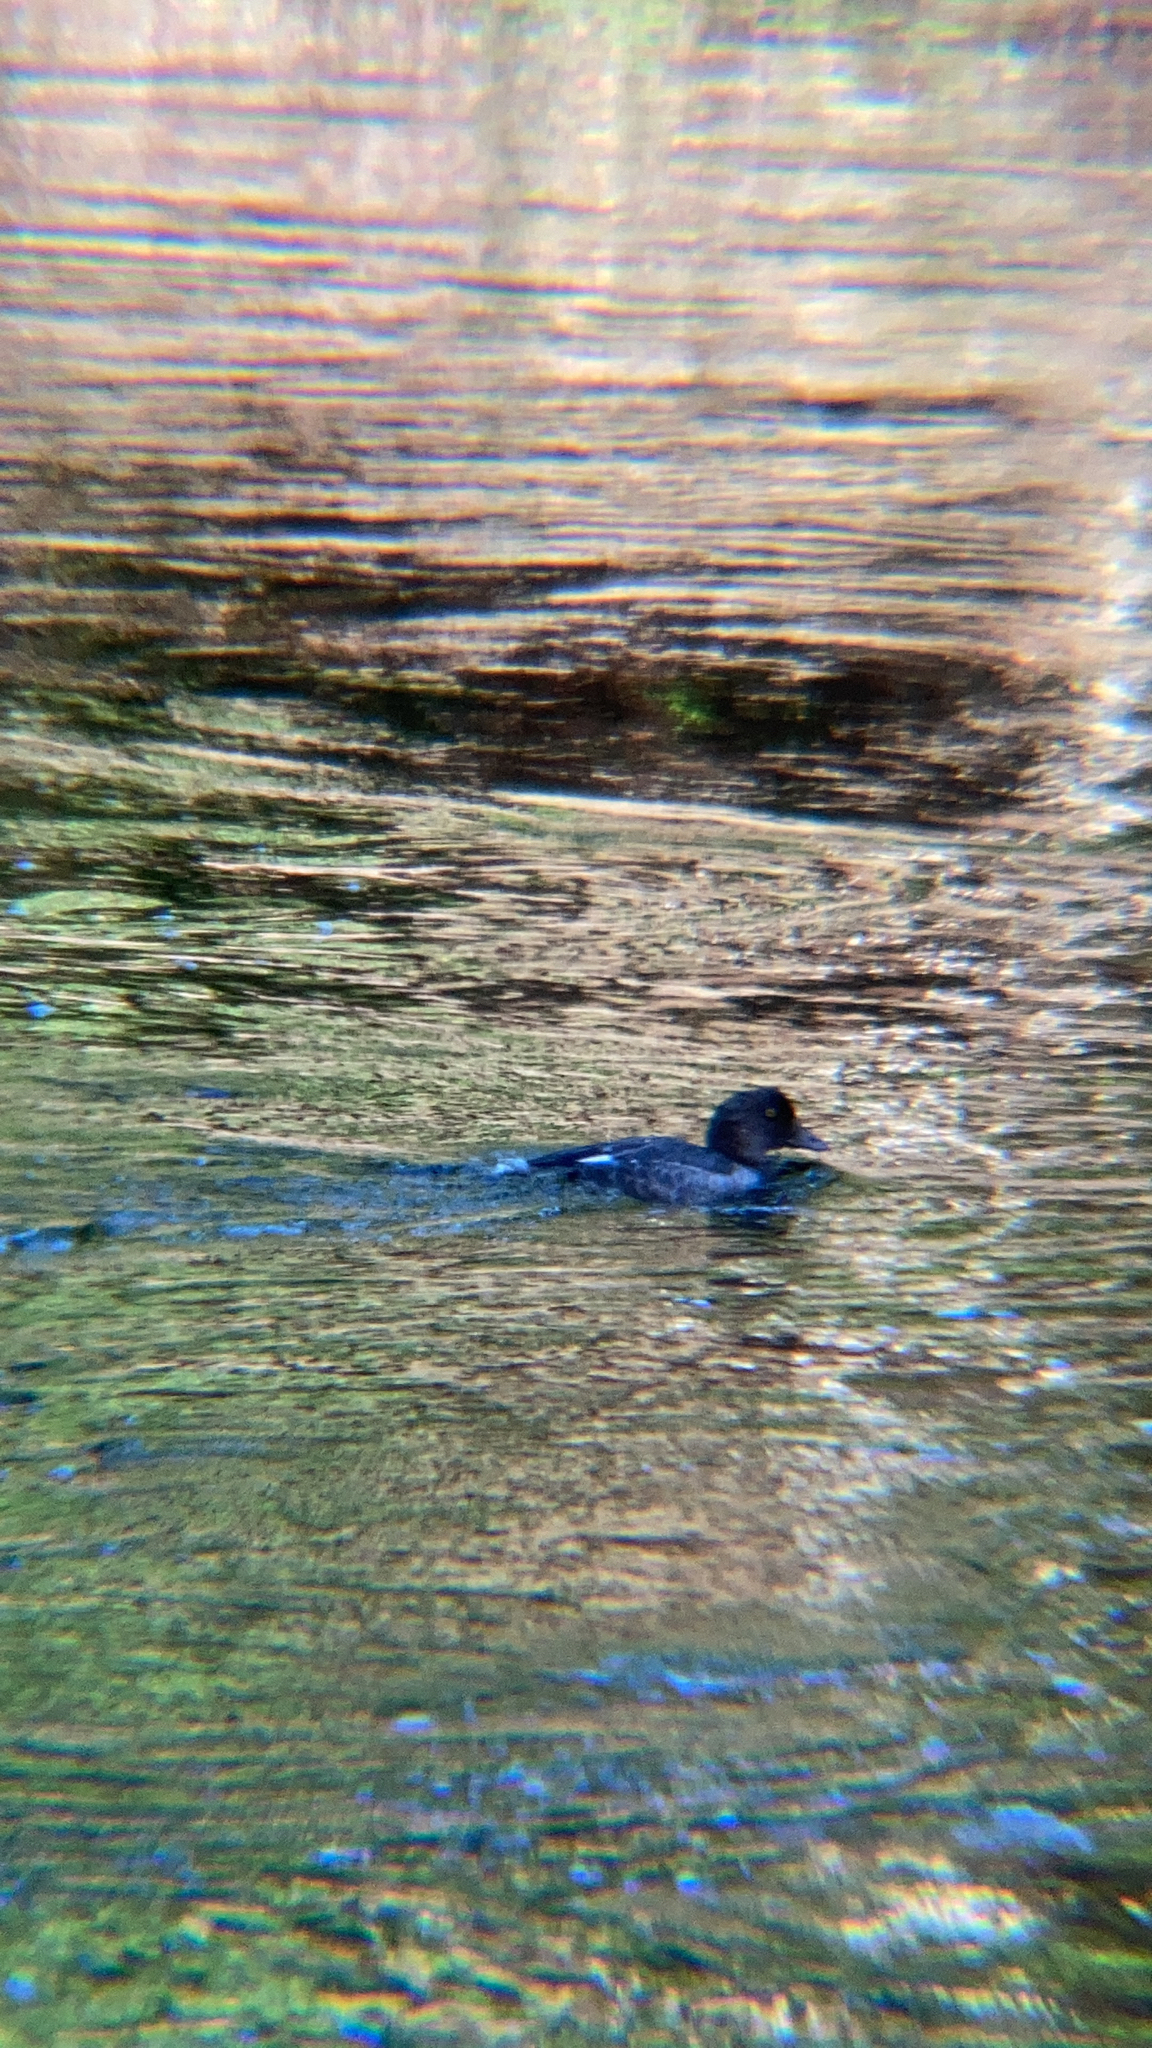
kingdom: Animalia
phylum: Chordata
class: Aves
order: Anseriformes
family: Anatidae
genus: Bucephala
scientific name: Bucephala clangula
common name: Common goldeneye
